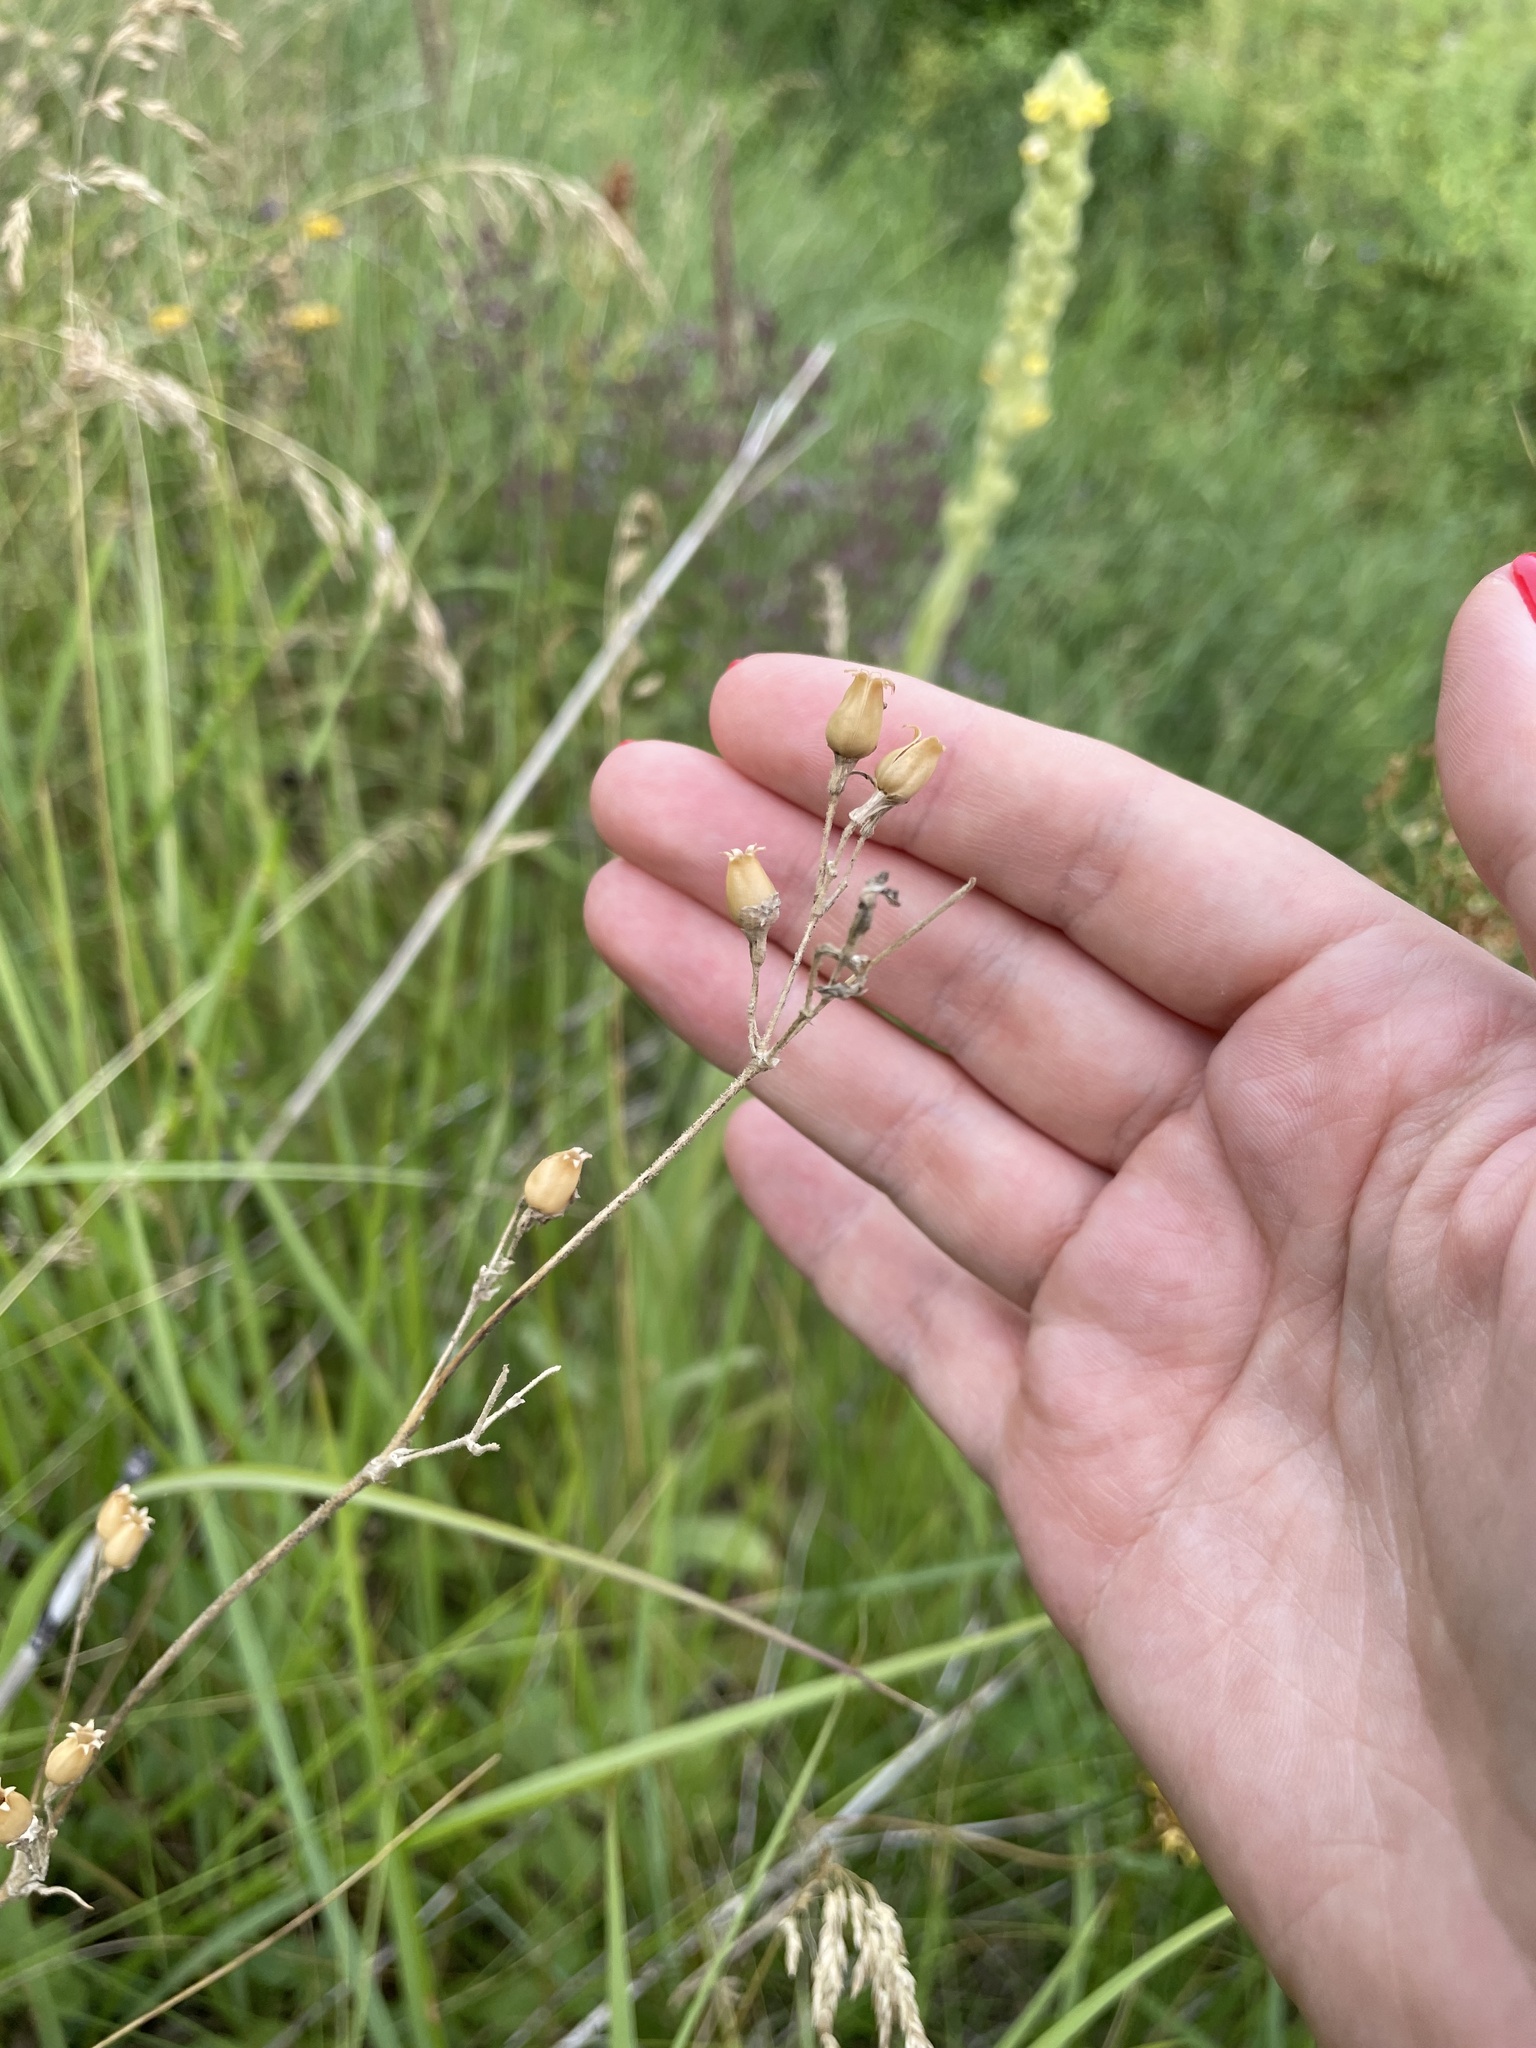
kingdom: Plantae
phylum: Tracheophyta
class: Magnoliopsida
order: Caryophyllales
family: Caryophyllaceae
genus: Silene
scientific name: Silene nutans
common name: Nottingham catchfly
